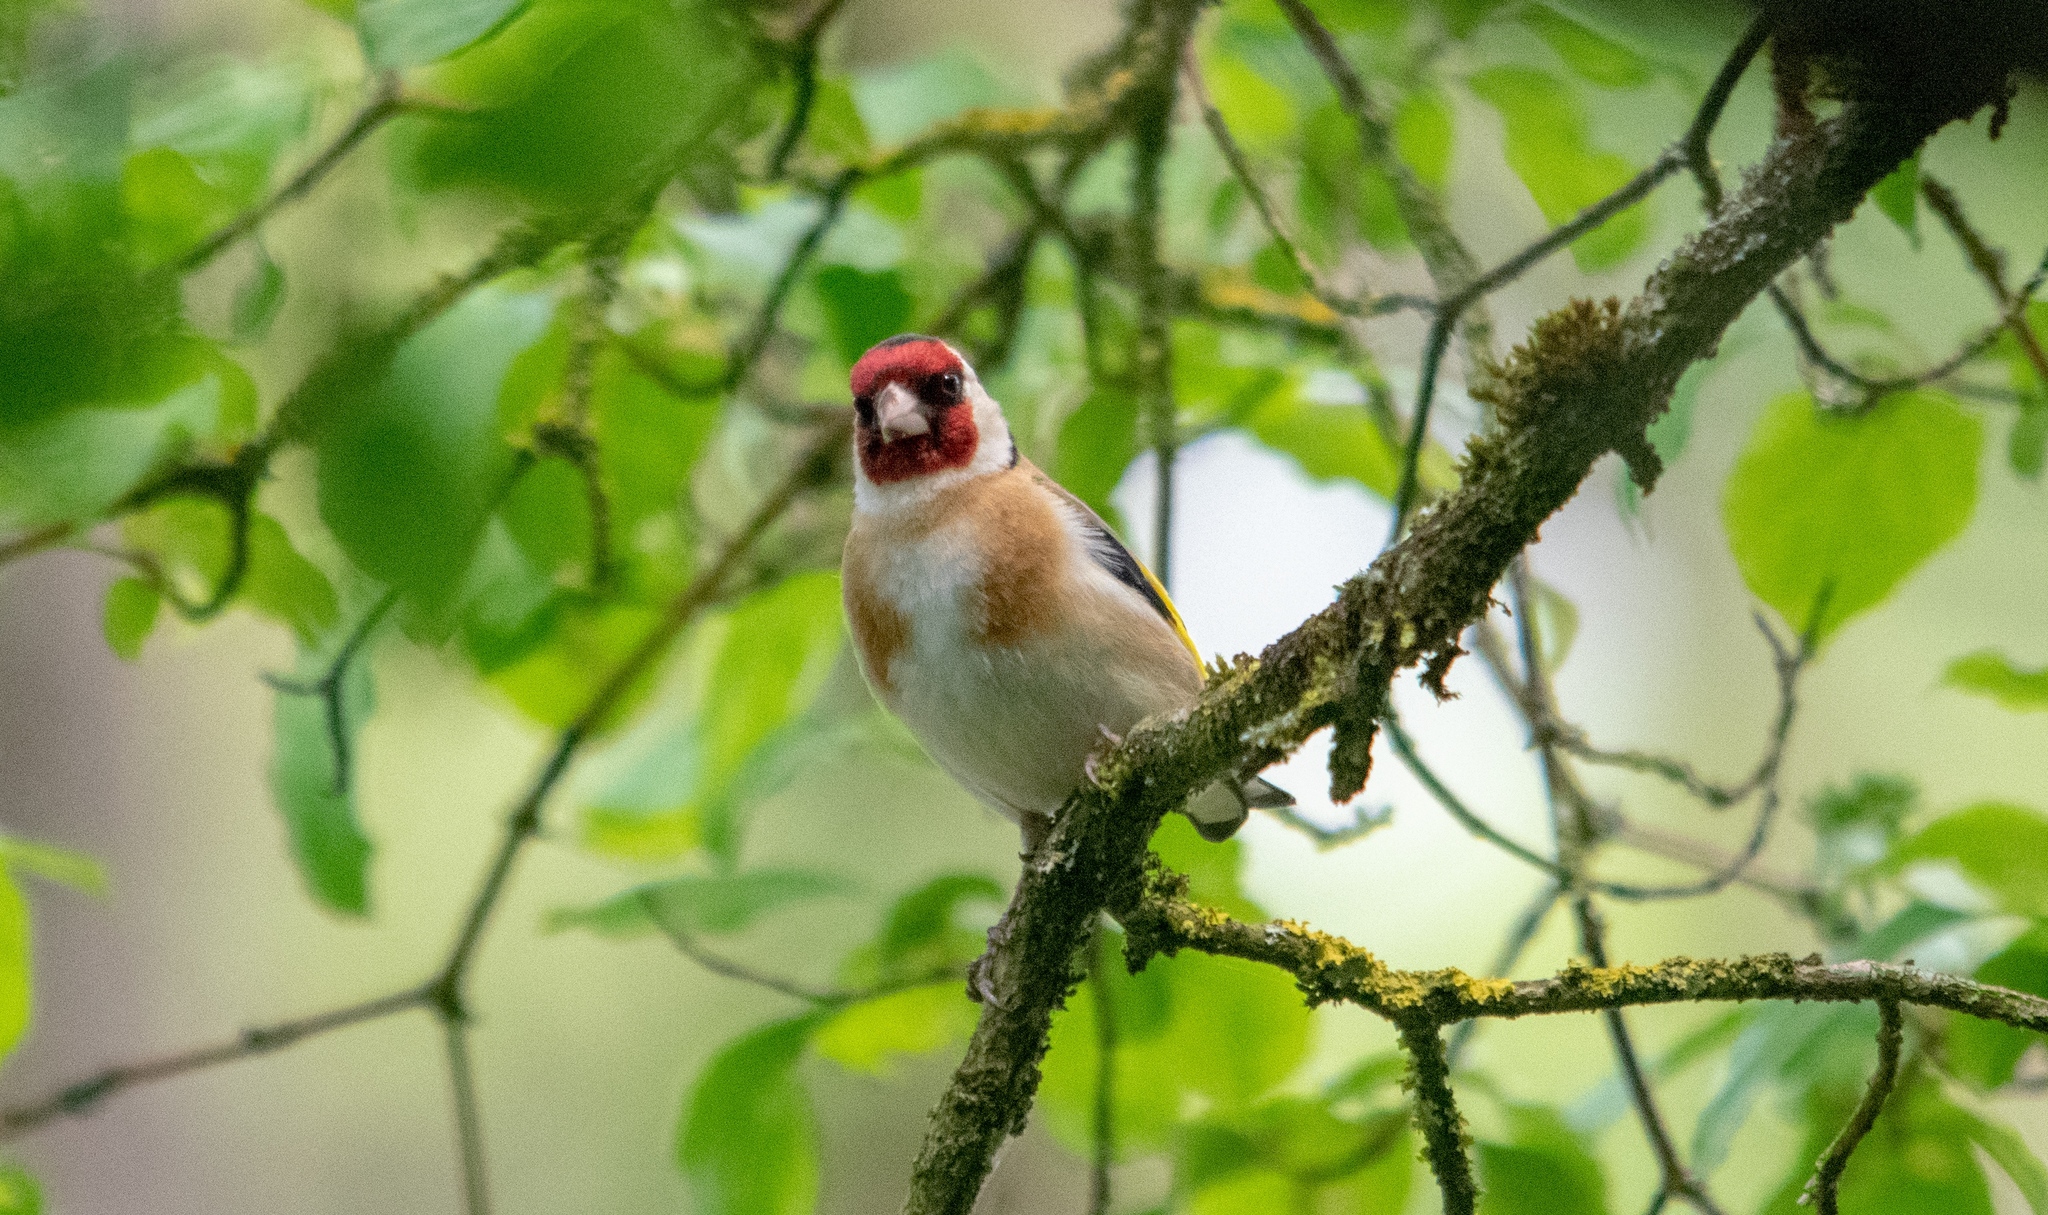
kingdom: Animalia
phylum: Chordata
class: Aves
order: Passeriformes
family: Fringillidae
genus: Carduelis
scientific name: Carduelis carduelis
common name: European goldfinch
